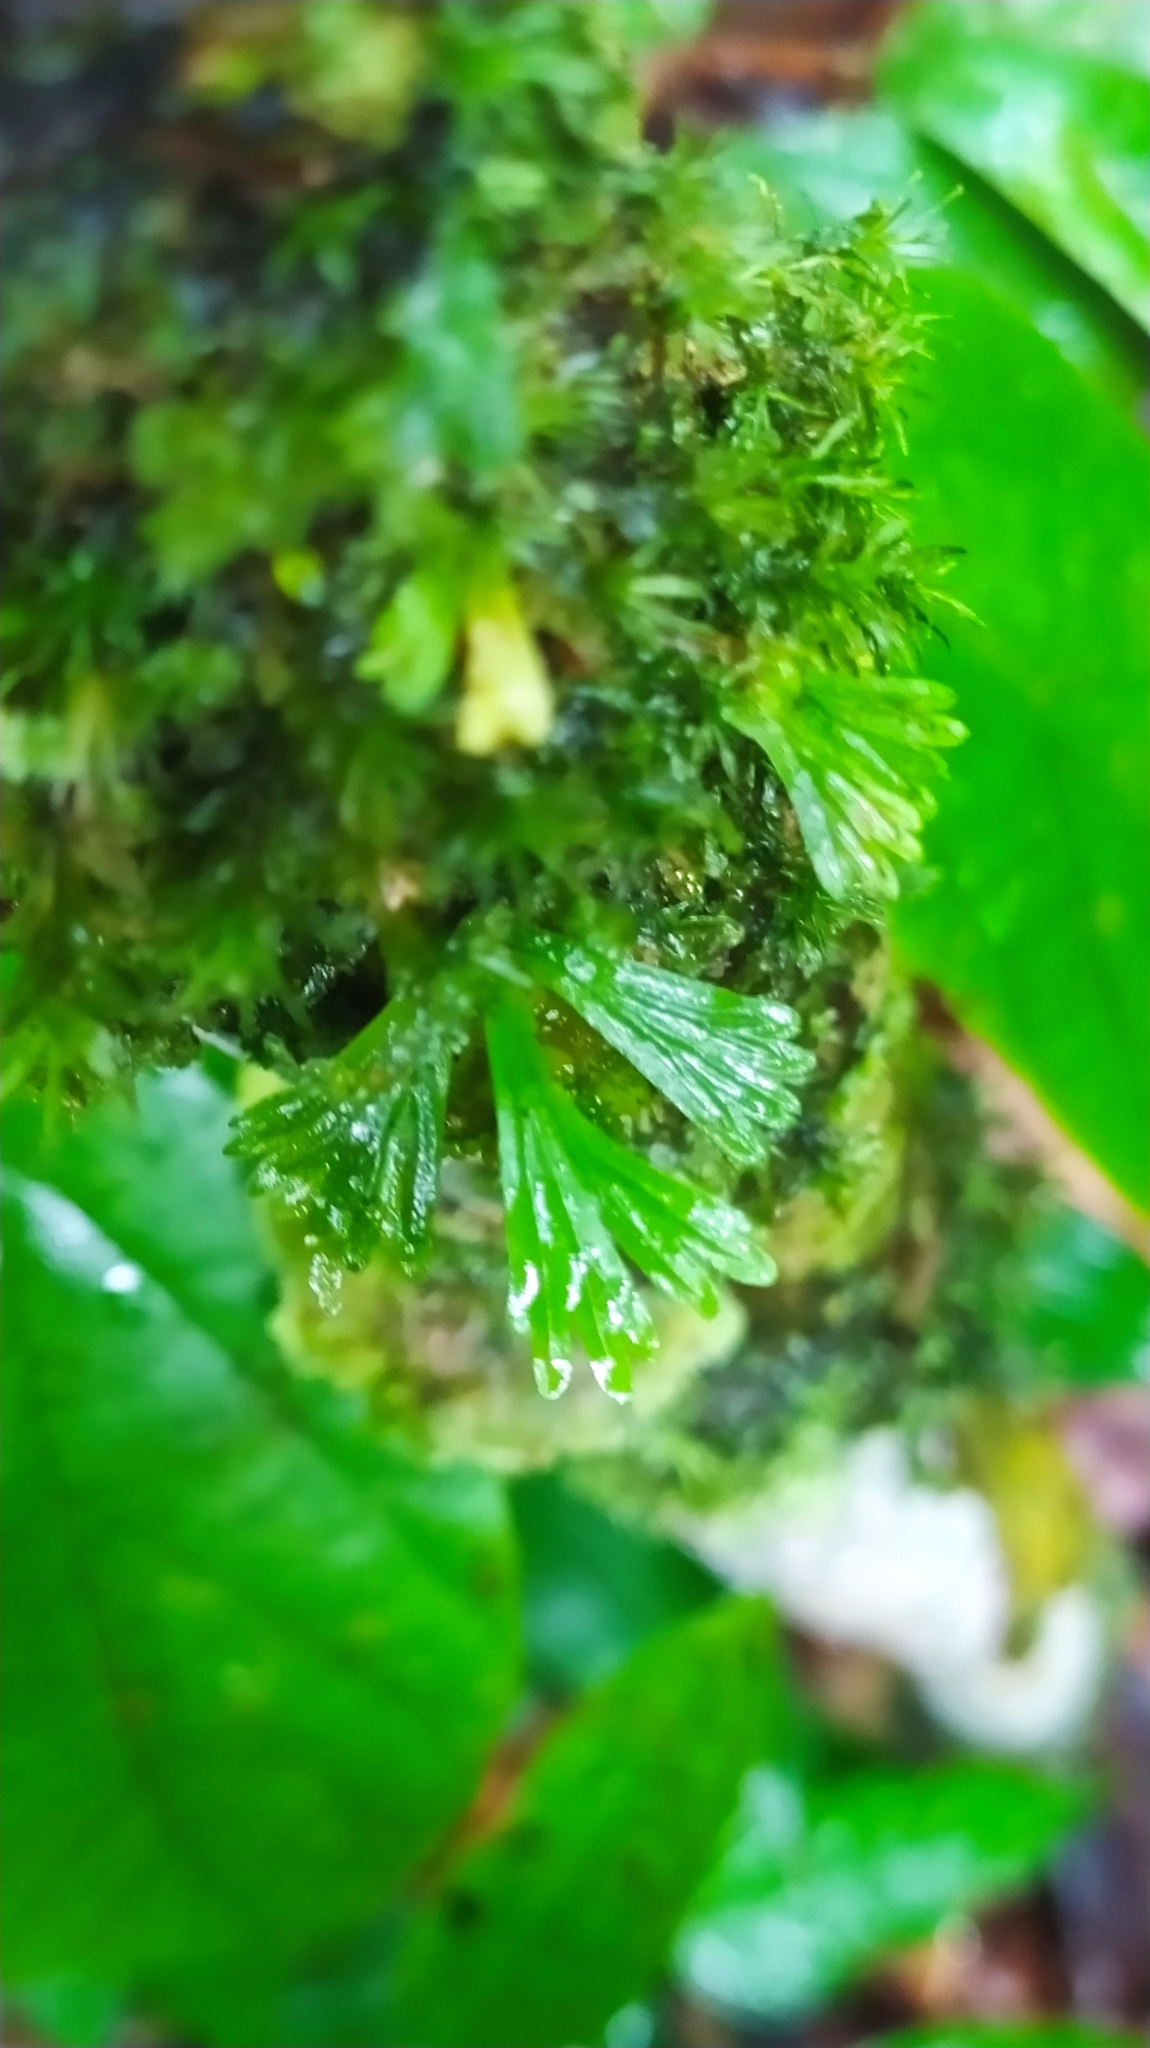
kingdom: Plantae
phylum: Tracheophyta
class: Polypodiopsida
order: Polypodiales
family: Pteridaceae
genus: Hecistopteris
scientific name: Hecistopteris pumila
